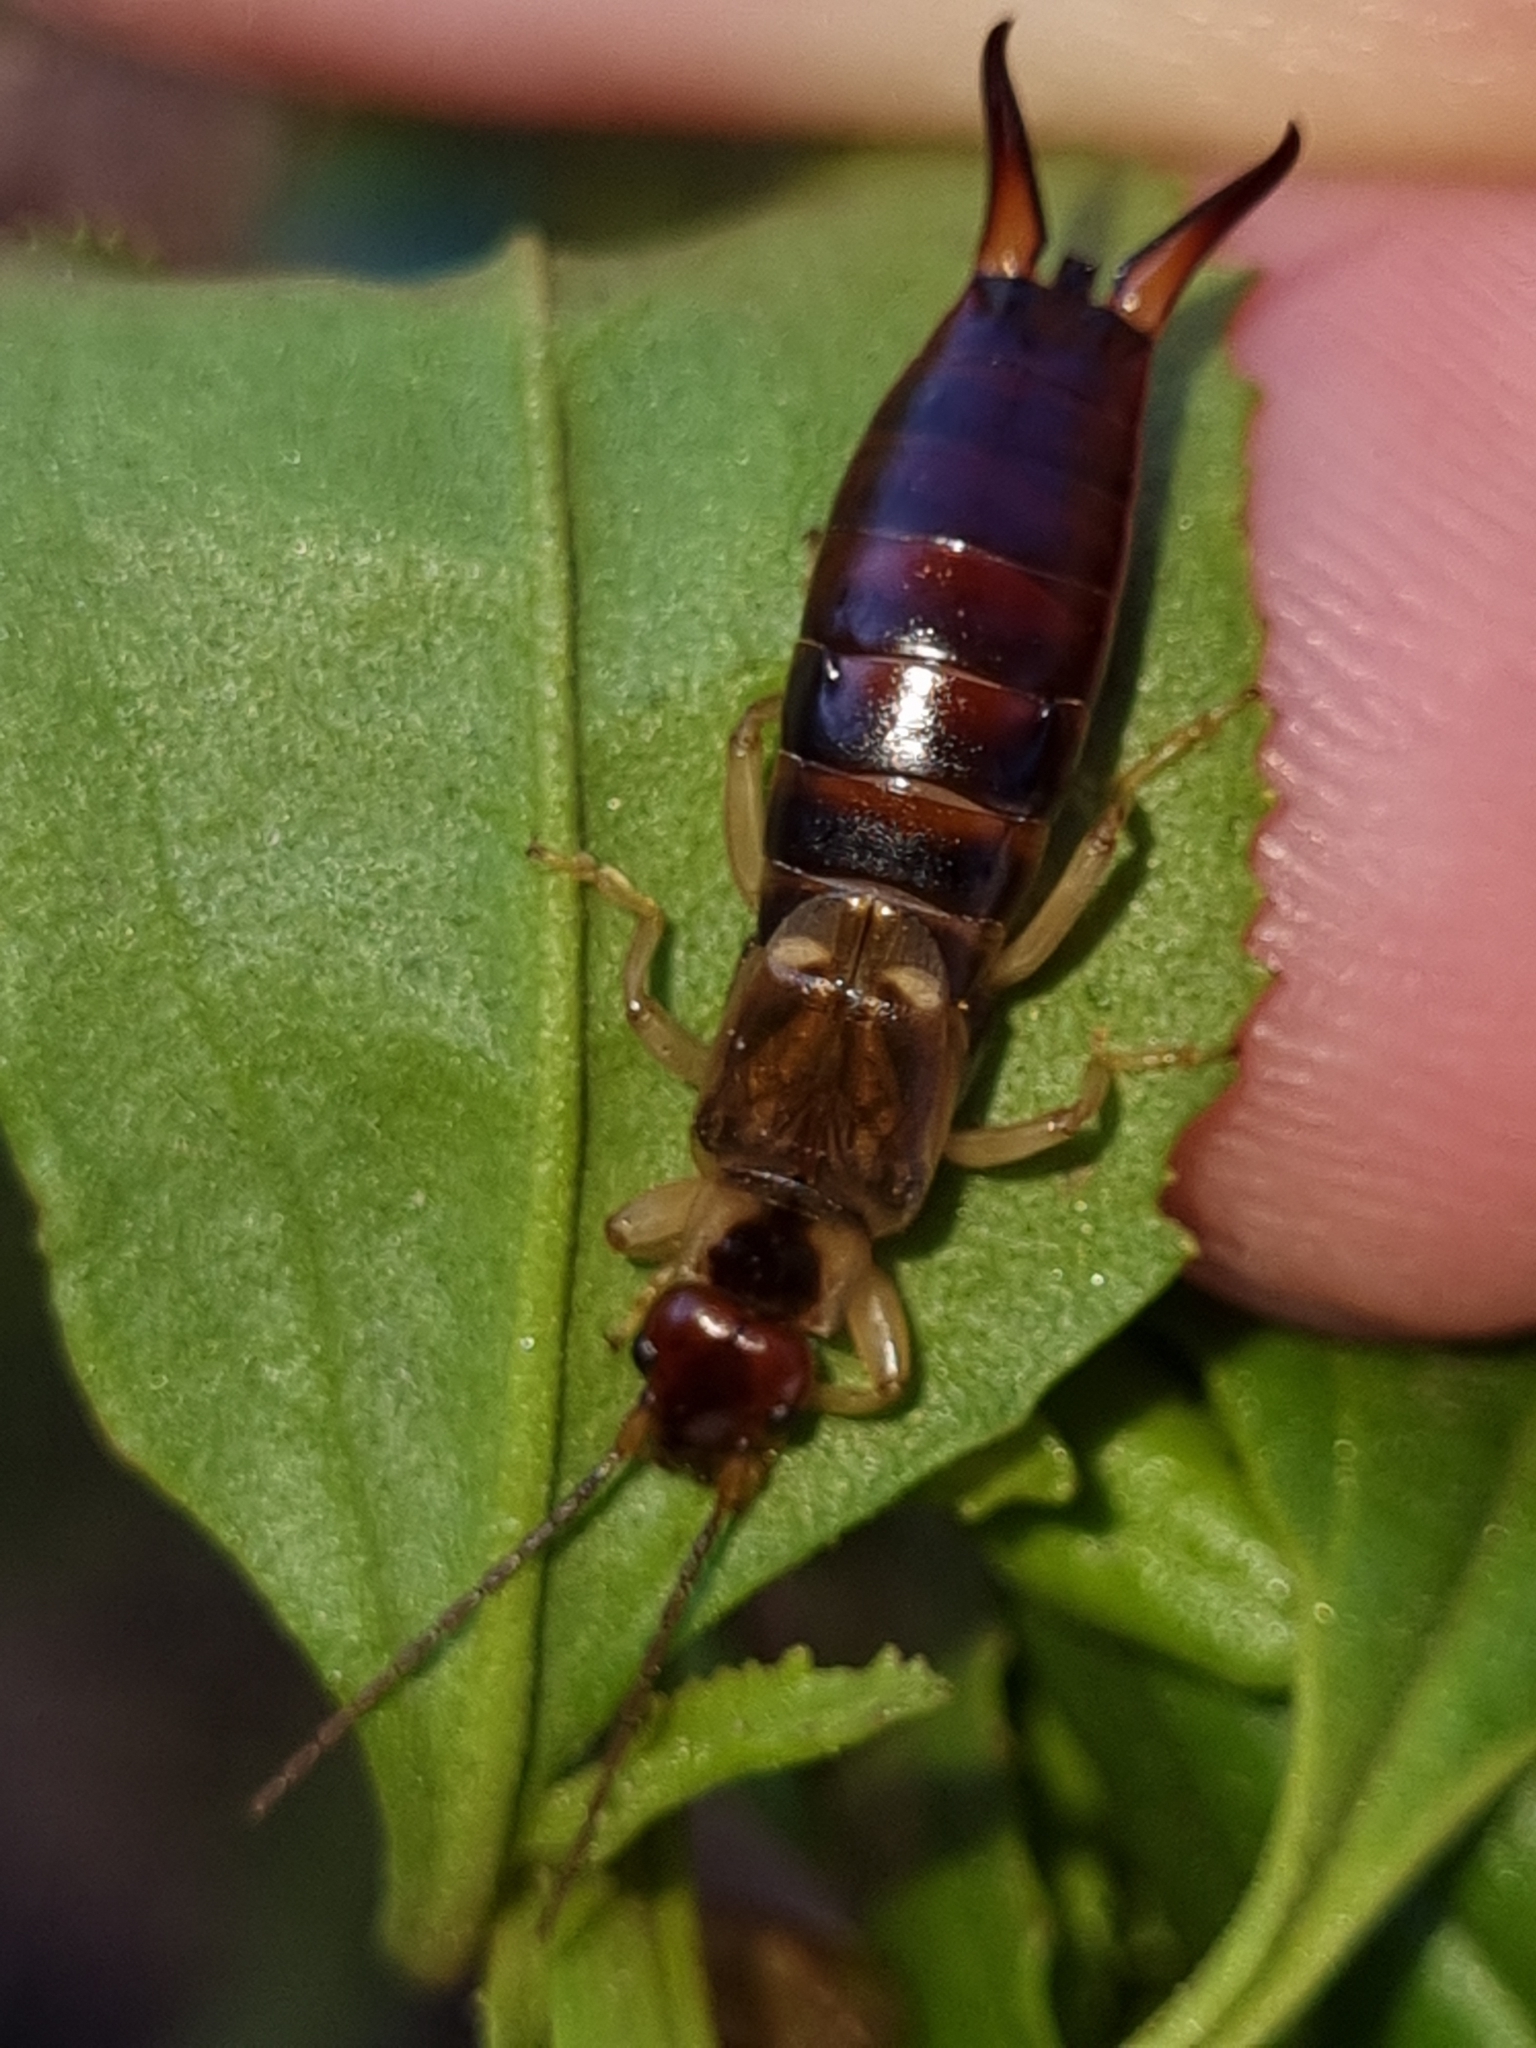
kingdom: Animalia
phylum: Arthropoda
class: Insecta
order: Dermaptera
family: Forficulidae
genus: Forficula
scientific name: Forficula
